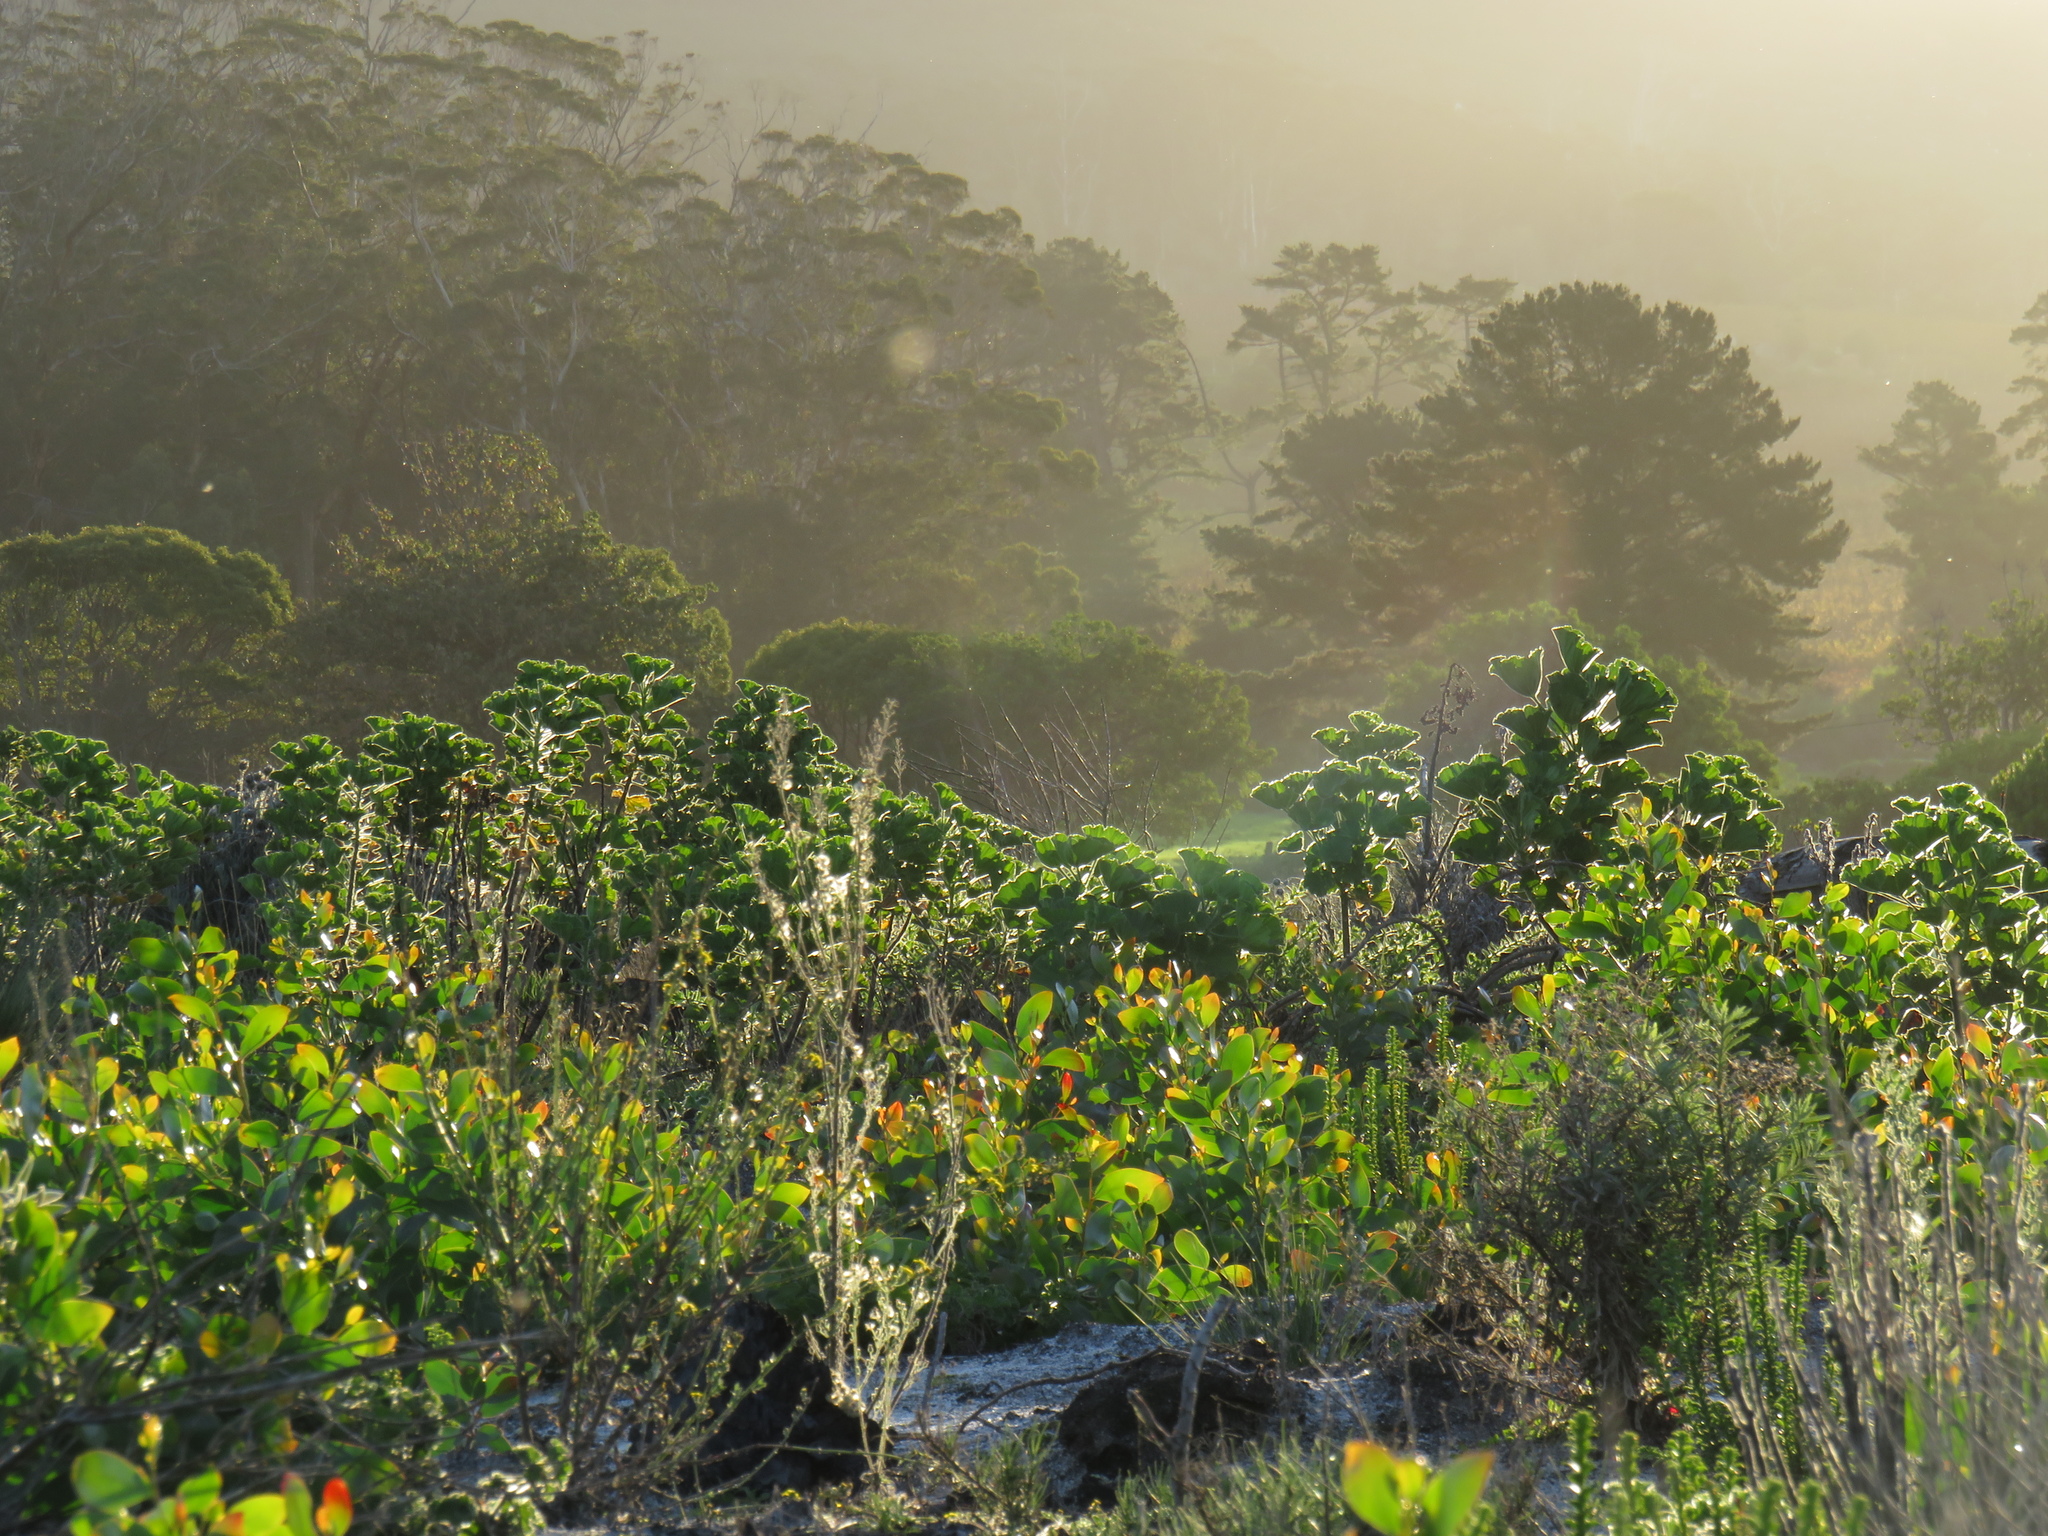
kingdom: Plantae
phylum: Tracheophyta
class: Magnoliopsida
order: Asterales
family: Asteraceae
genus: Erigeron
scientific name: Erigeron bonariensis
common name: Argentine fleabane
